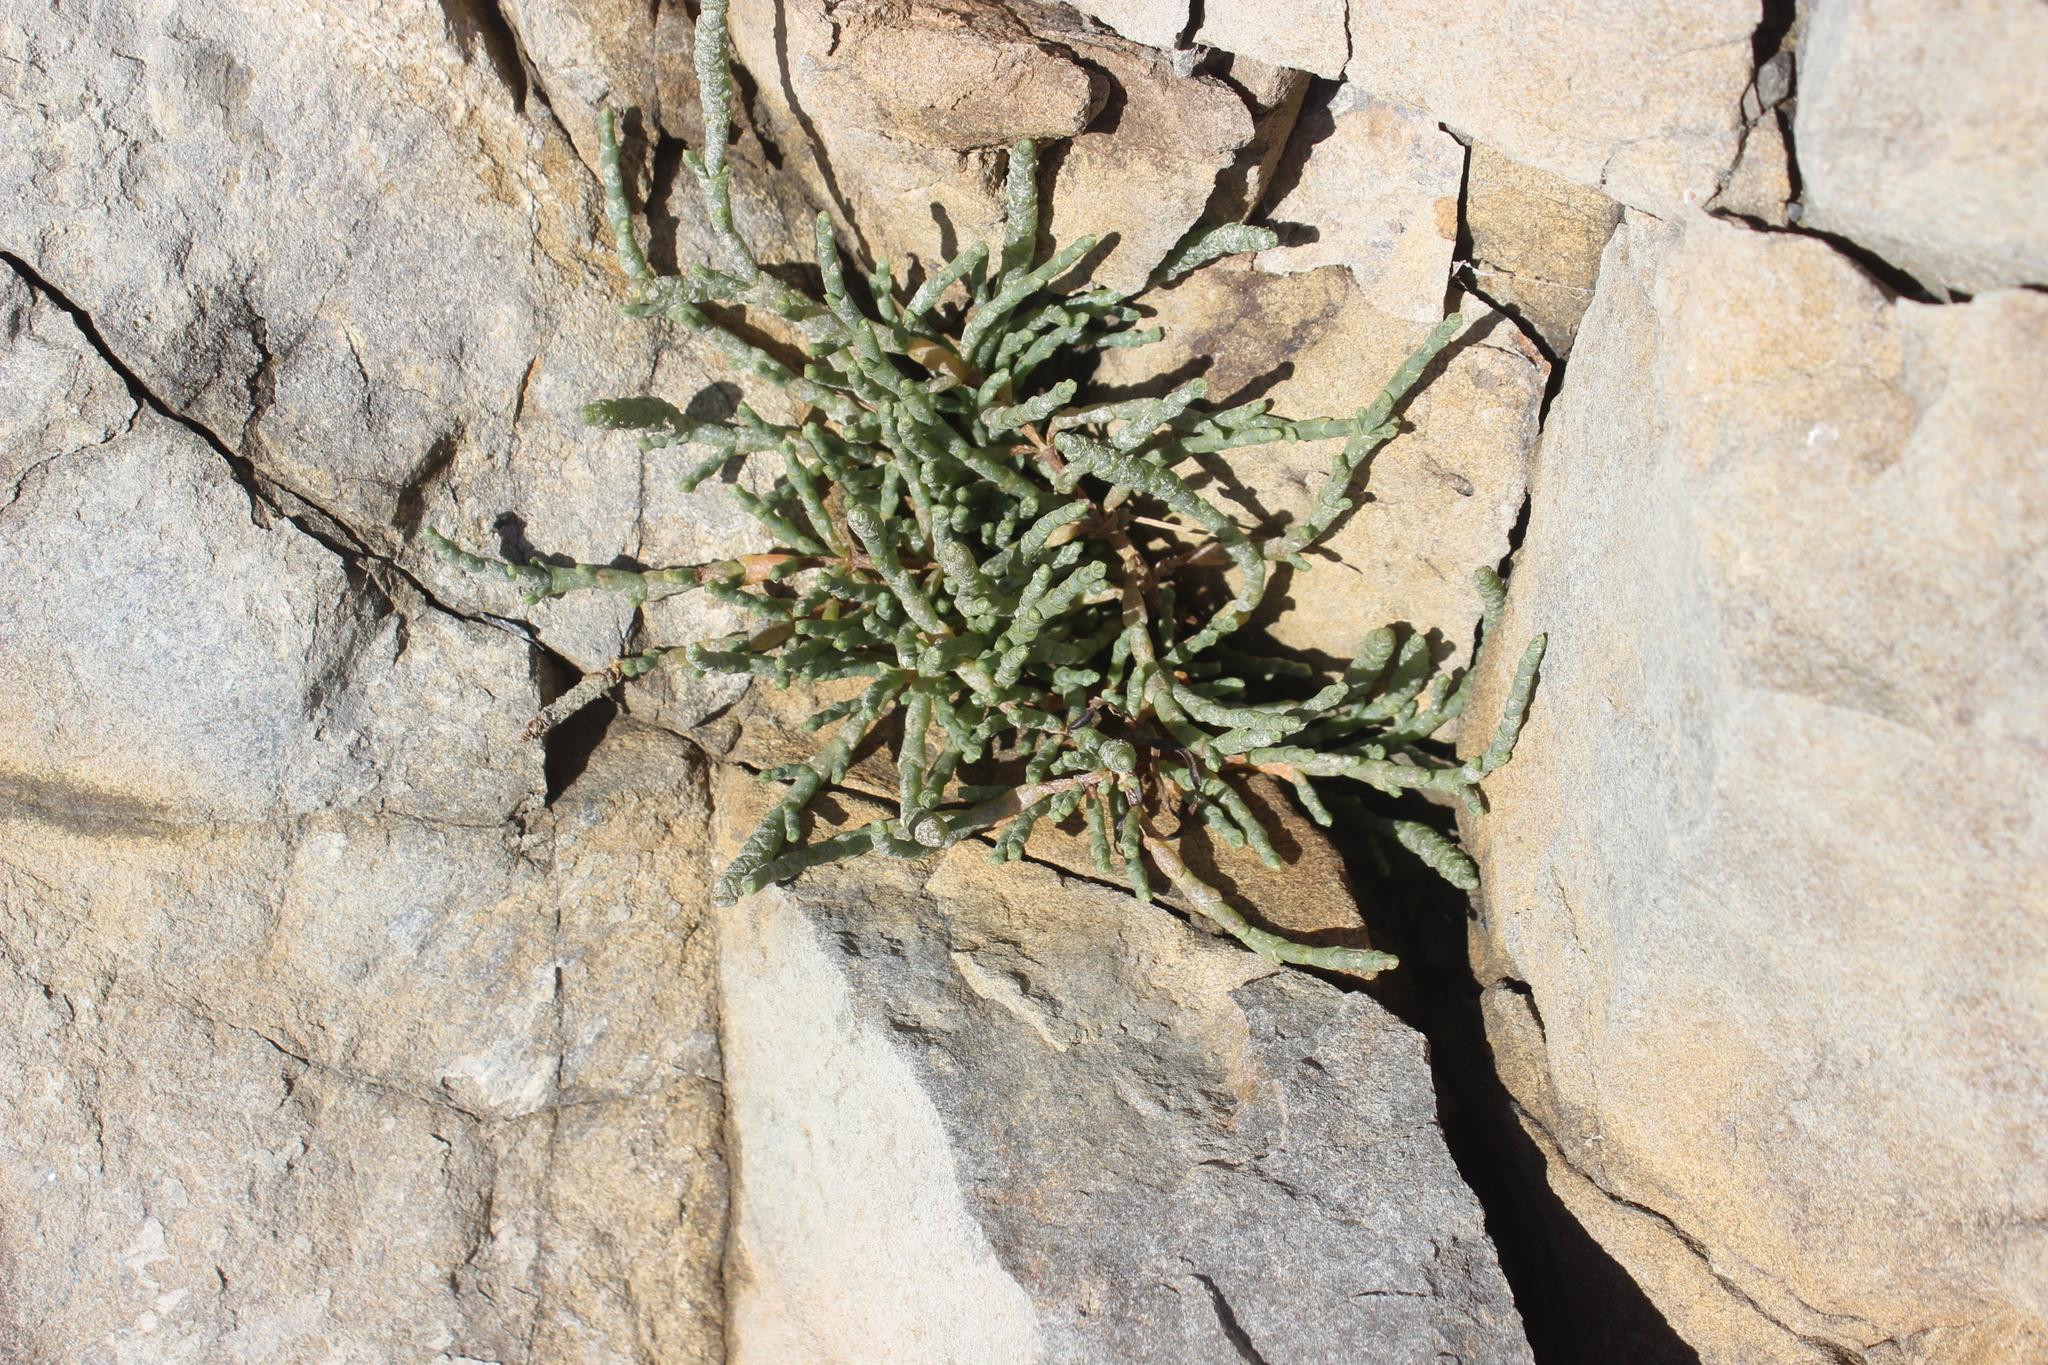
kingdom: Plantae
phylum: Tracheophyta
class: Magnoliopsida
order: Caryophyllales
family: Amaranthaceae
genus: Salicornia
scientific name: Salicornia quinqueflora
